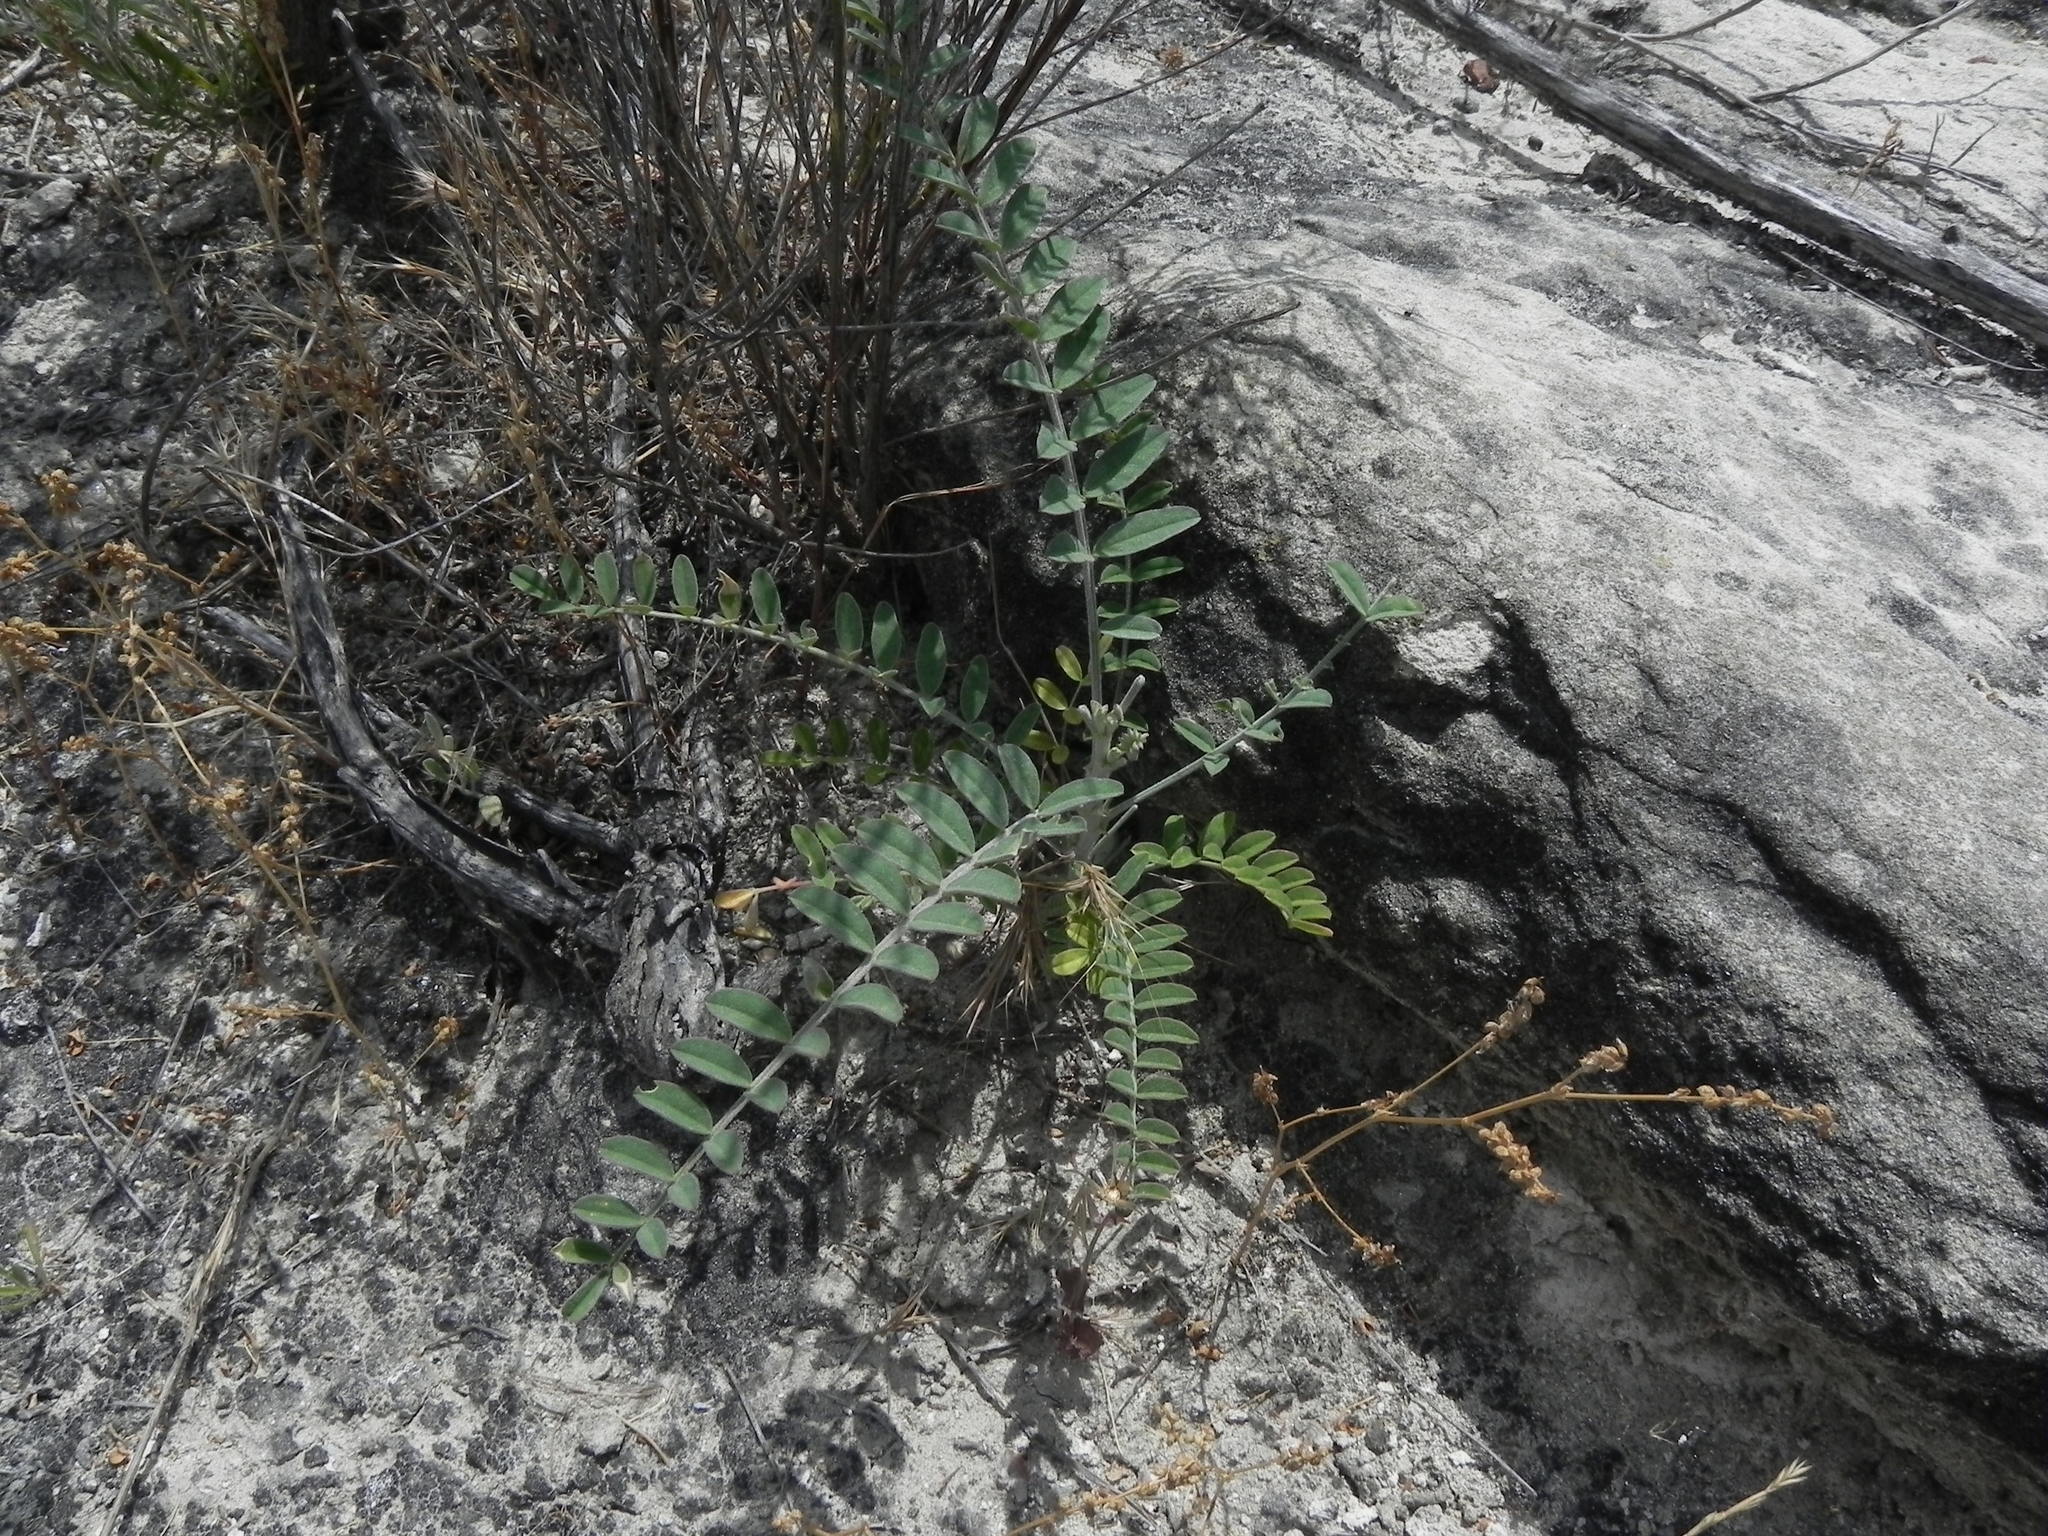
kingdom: Plantae
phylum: Tracheophyta
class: Magnoliopsida
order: Fabales
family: Fabaceae
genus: Astragalus
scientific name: Astragalus trichopodus
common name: Santa barbara milk-vetch
